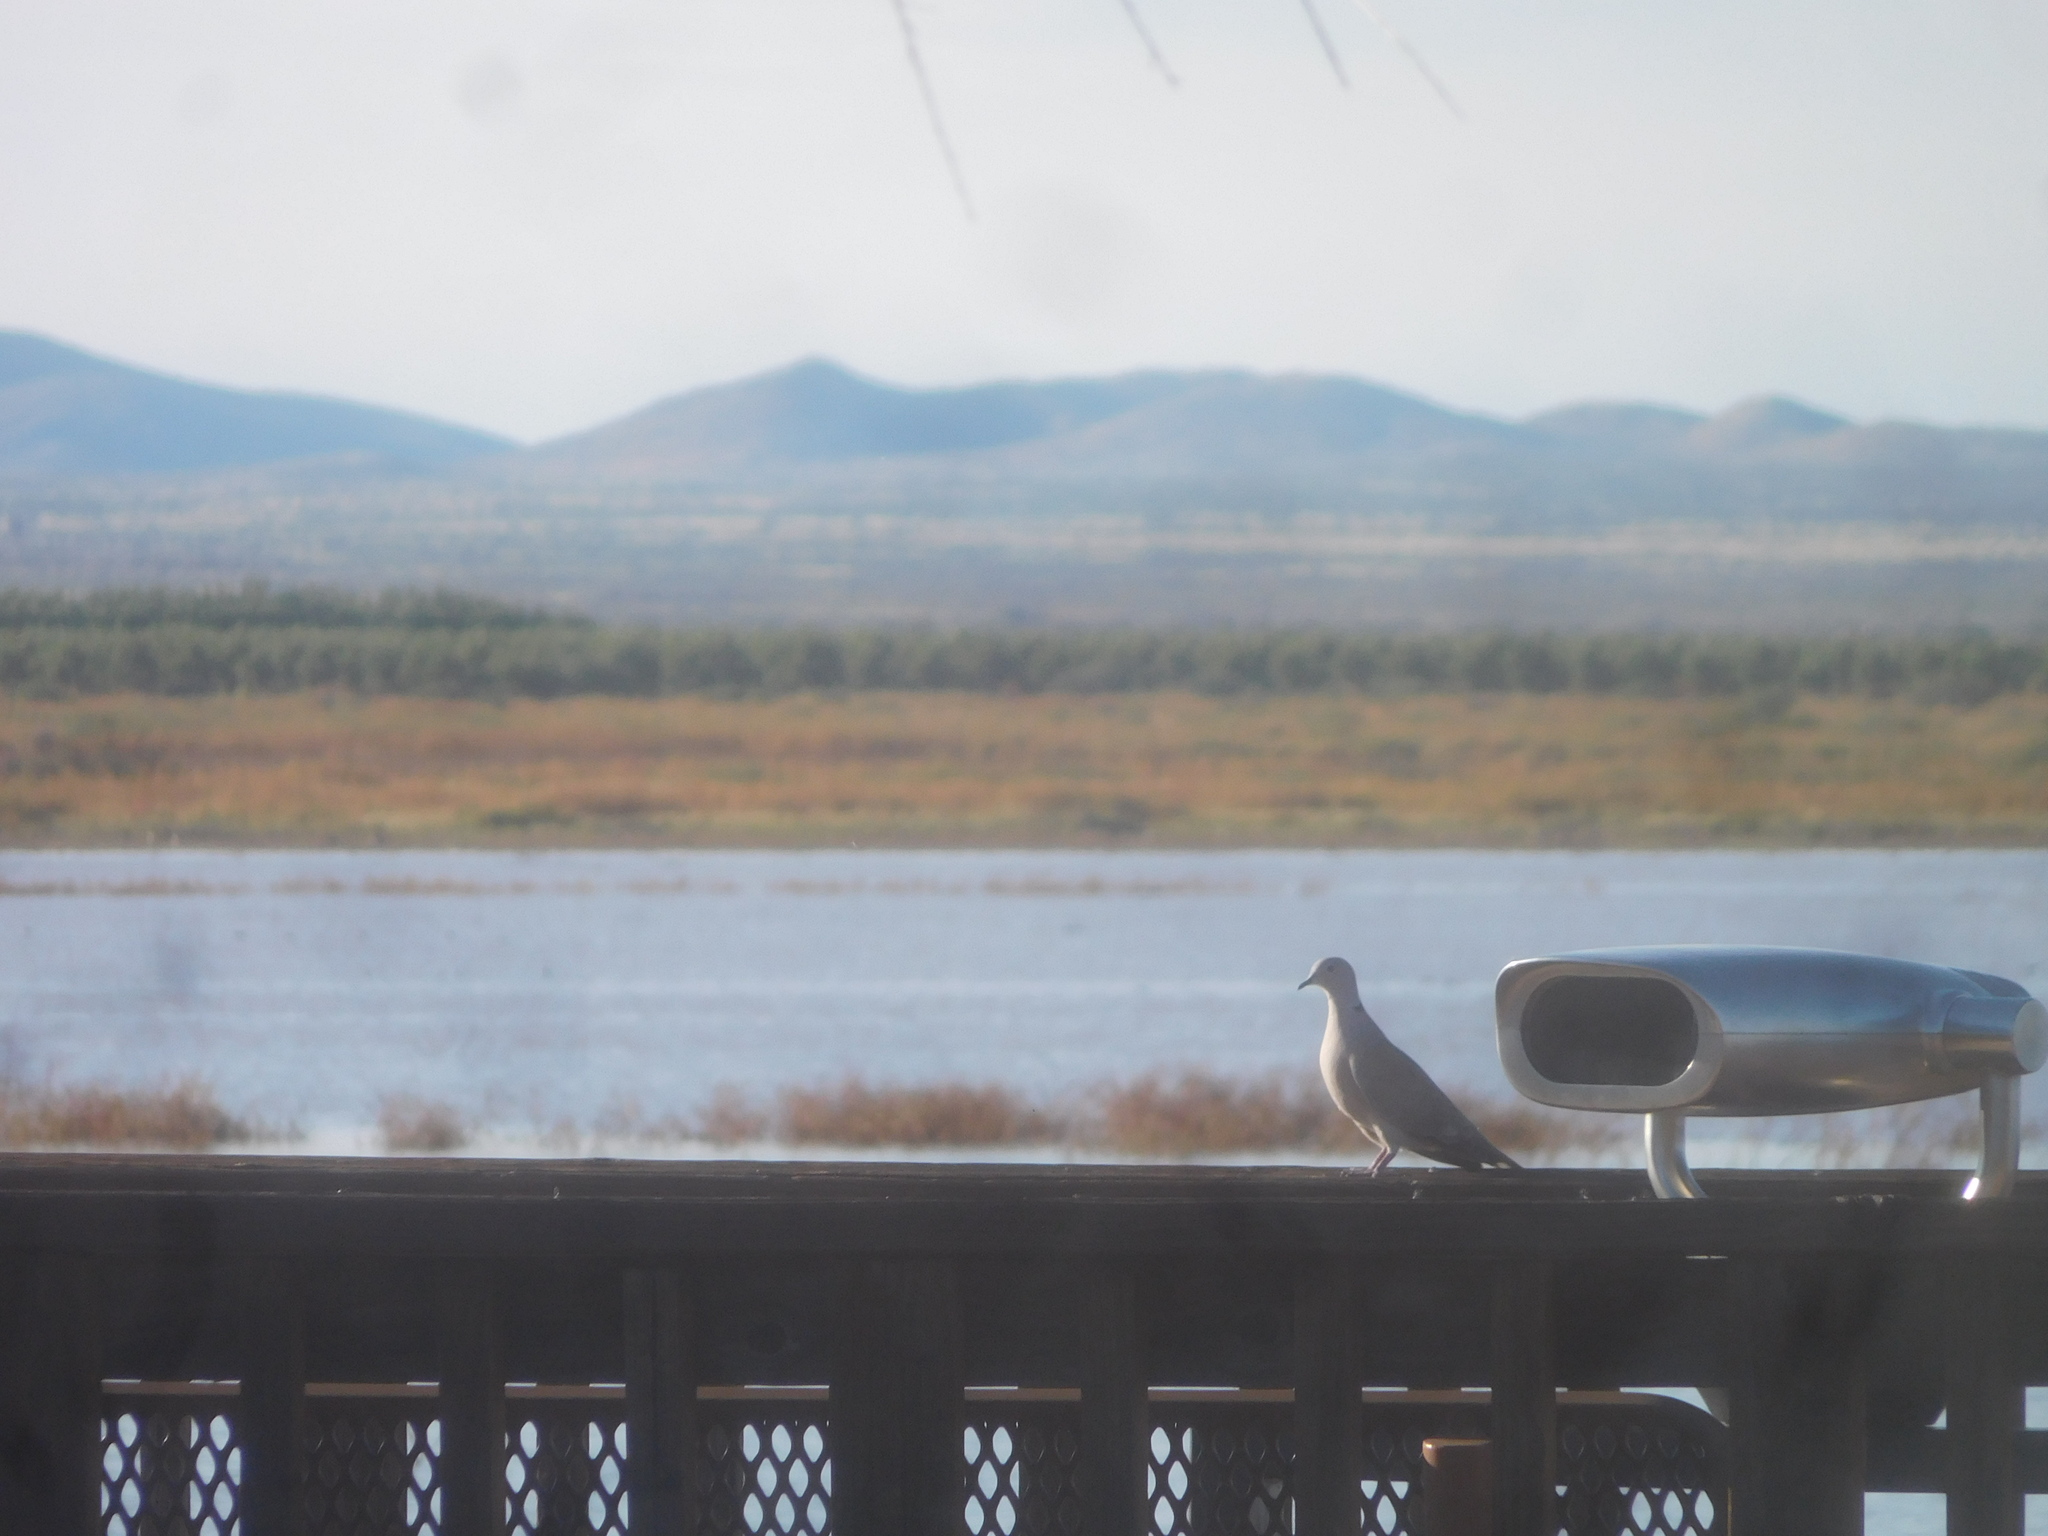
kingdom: Animalia
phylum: Chordata
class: Aves
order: Columbiformes
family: Columbidae
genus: Streptopelia
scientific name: Streptopelia decaocto
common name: Eurasian collared dove
